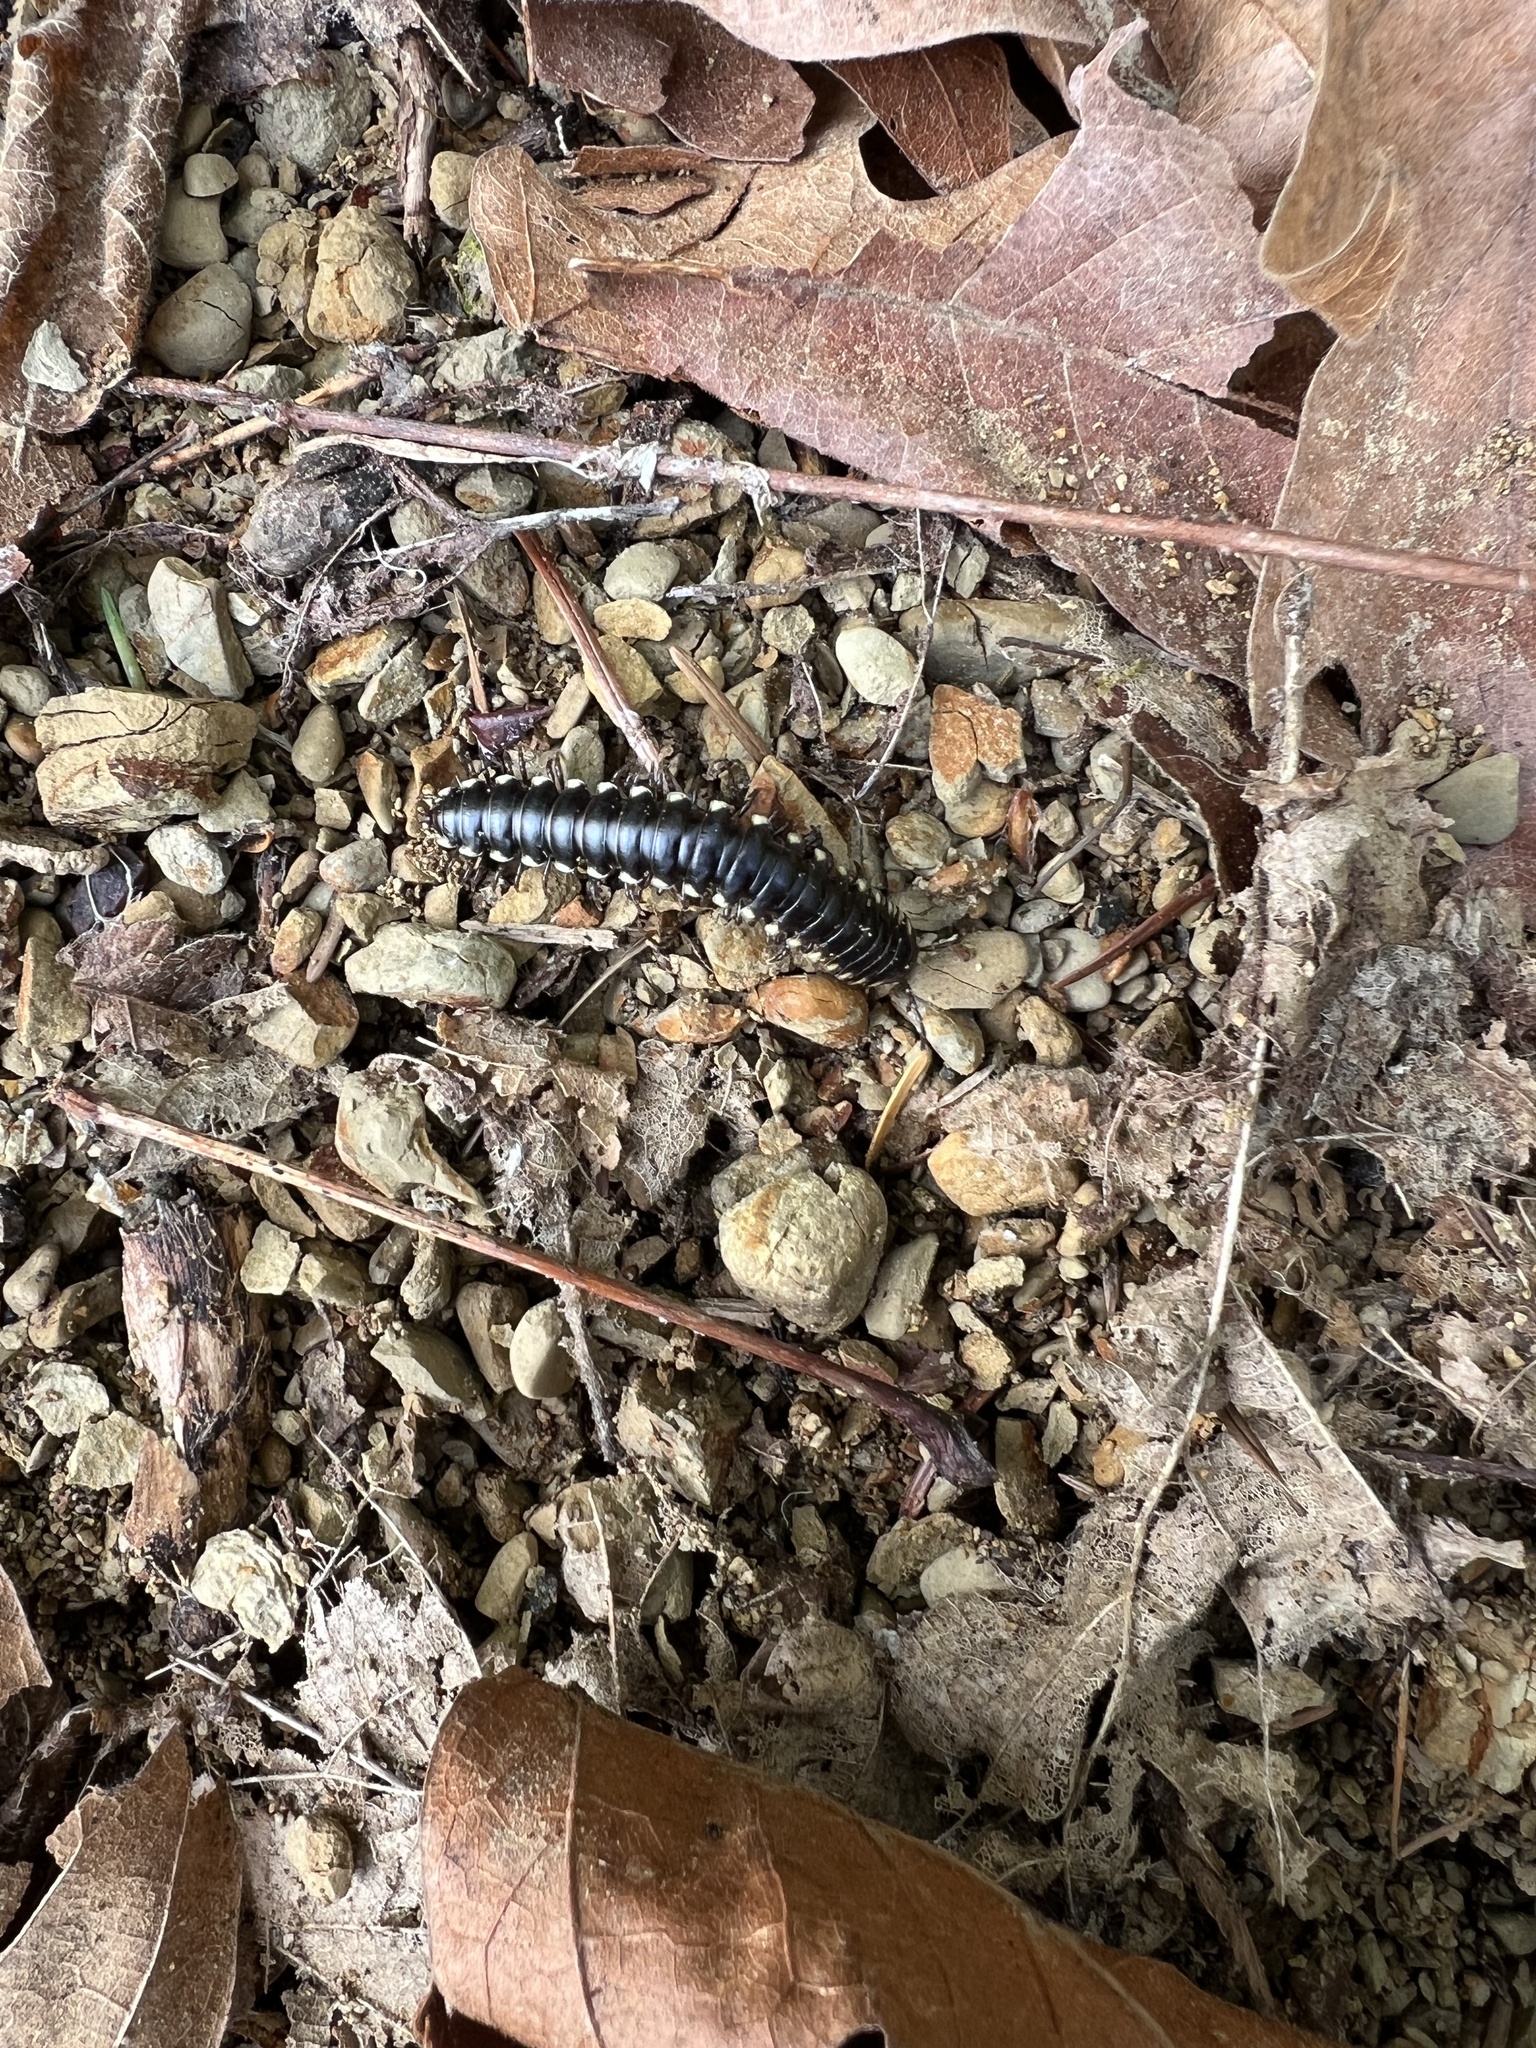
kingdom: Animalia
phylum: Arthropoda
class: Diplopoda
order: Polydesmida
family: Xystodesmidae
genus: Harpaphe
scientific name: Harpaphe haydeniana
